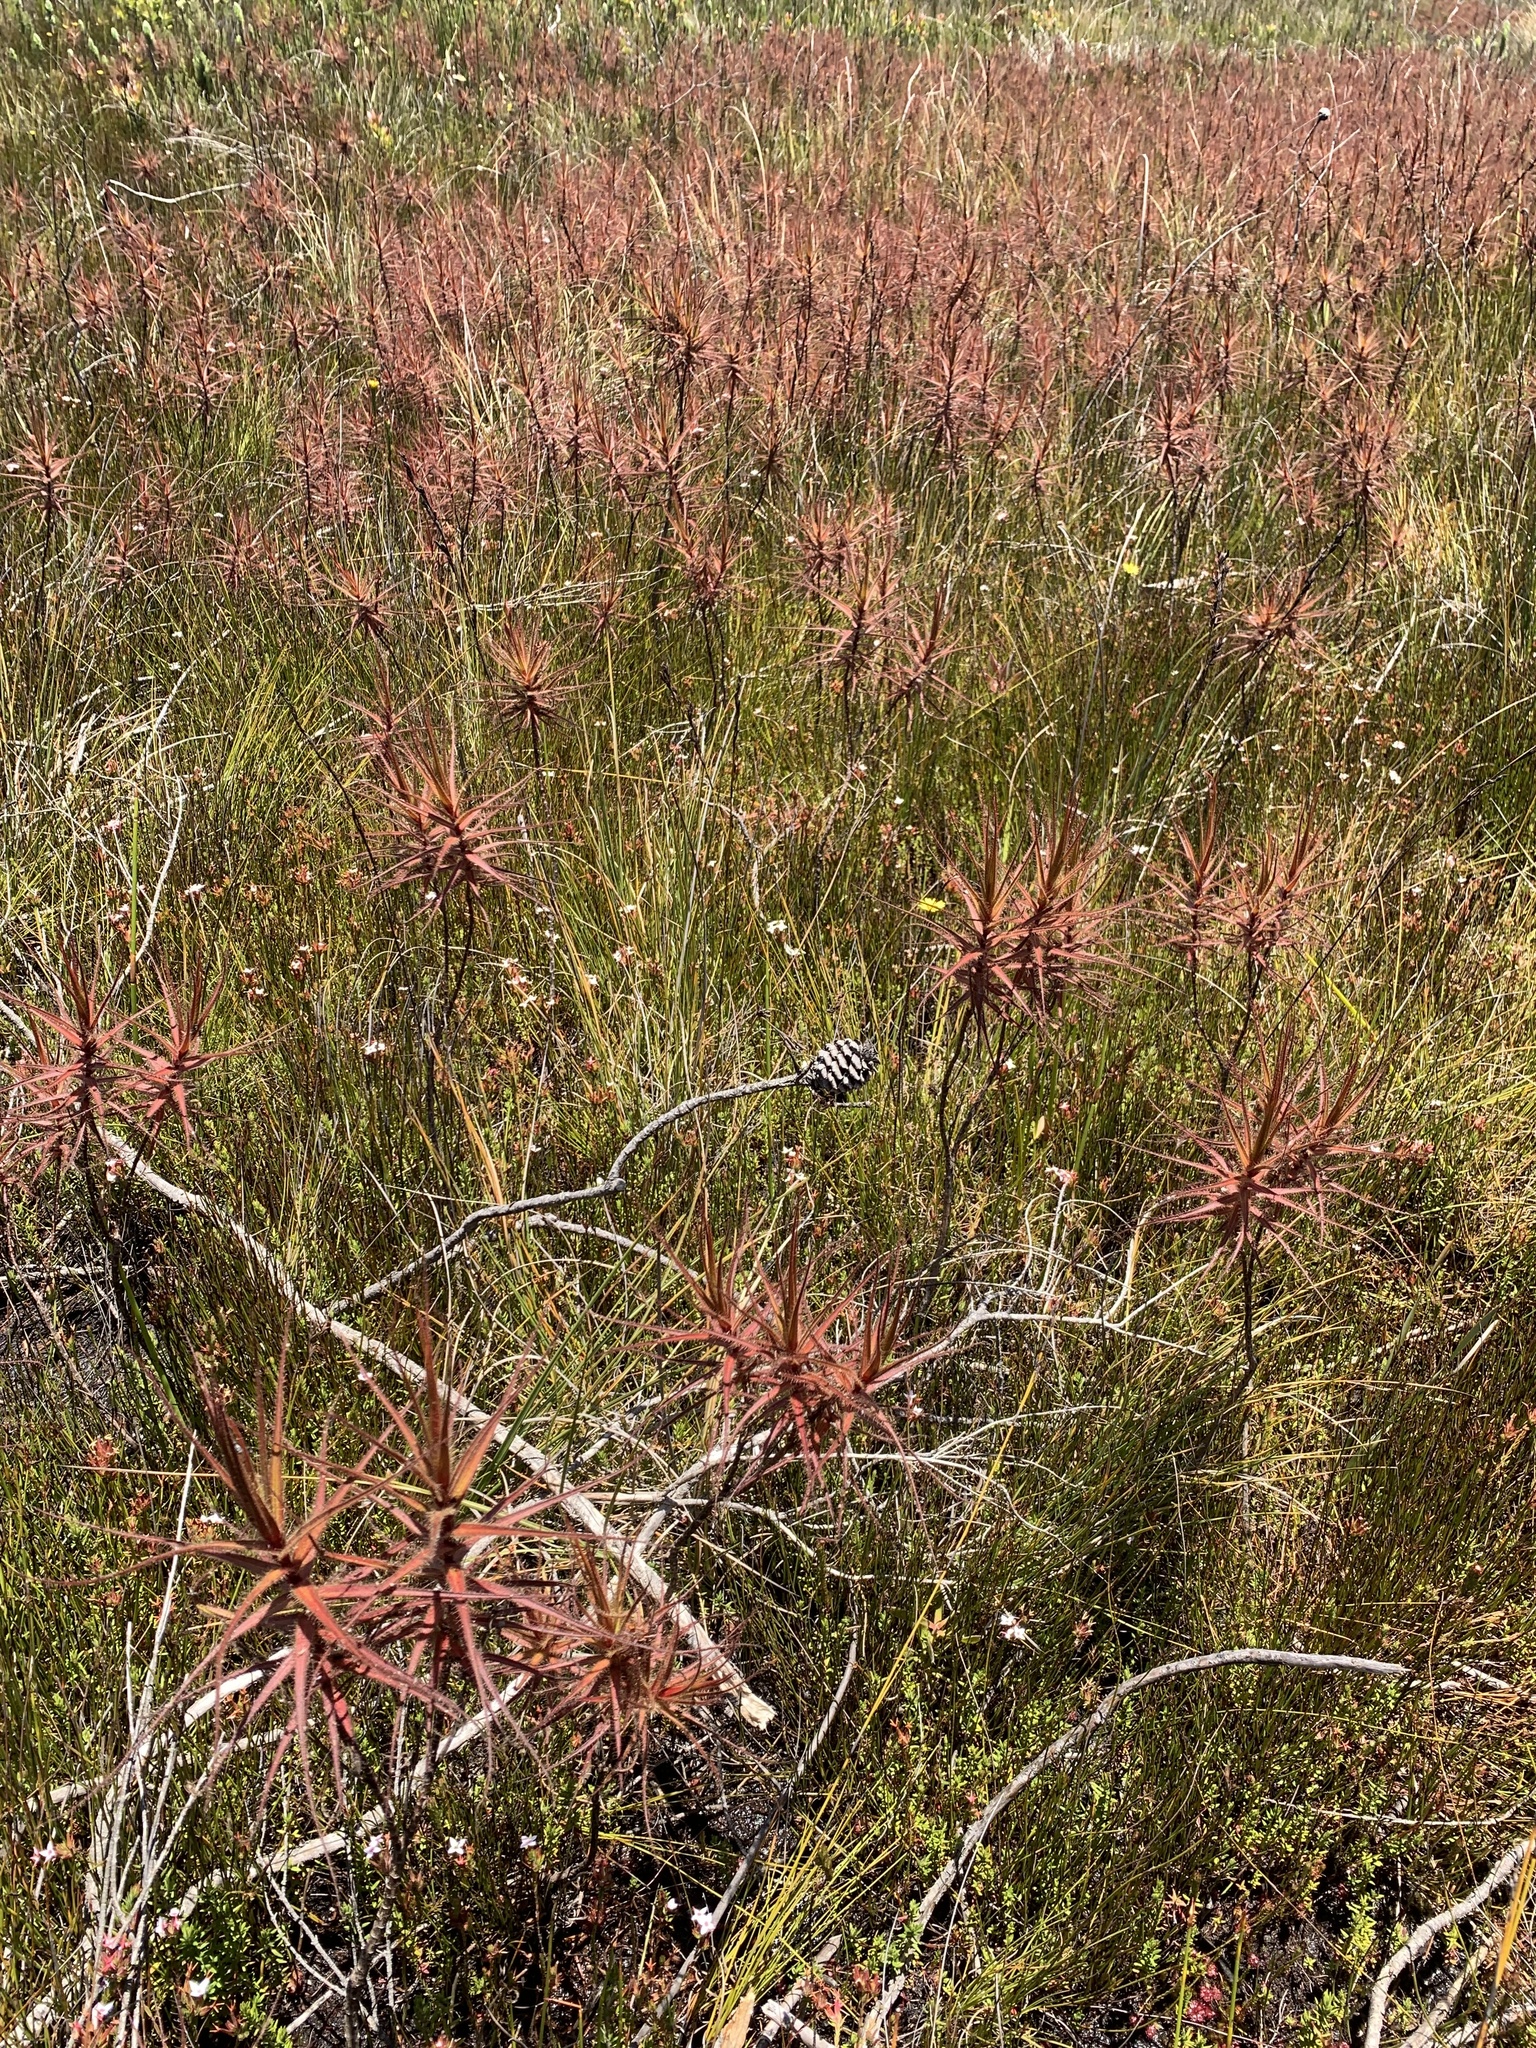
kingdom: Plantae
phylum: Tracheophyta
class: Magnoliopsida
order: Ericales
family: Roridulaceae
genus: Roridula
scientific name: Roridula gorgonias
